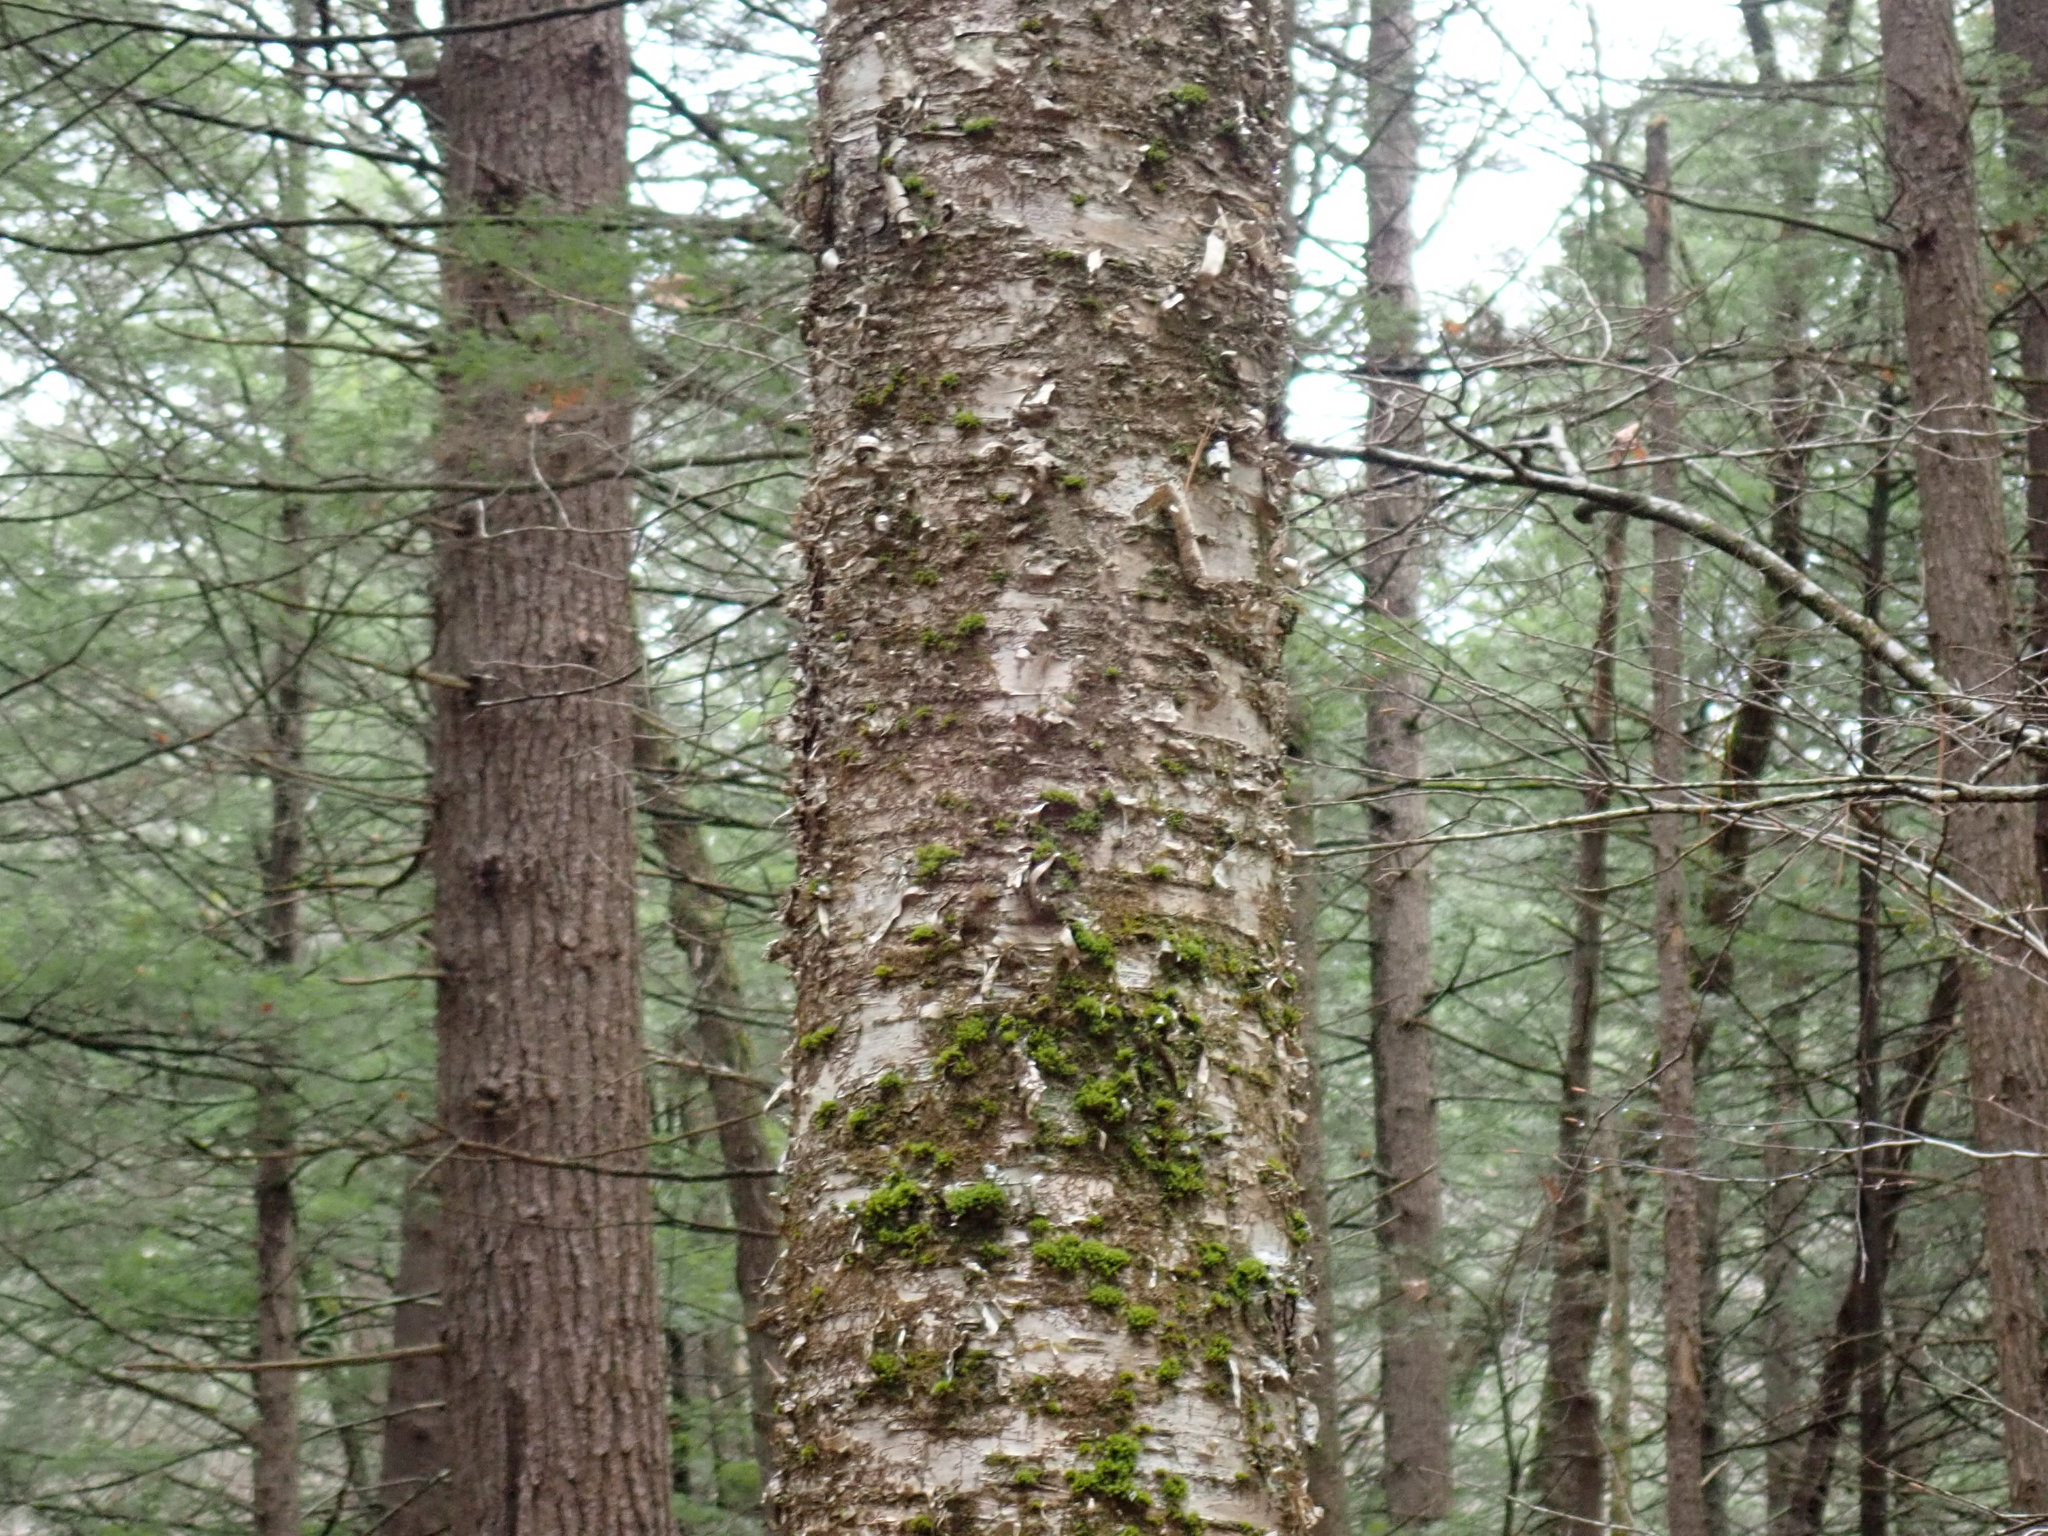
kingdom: Plantae
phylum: Tracheophyta
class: Magnoliopsida
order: Fagales
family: Betulaceae
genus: Betula
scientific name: Betula alleghaniensis
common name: Yellow birch
